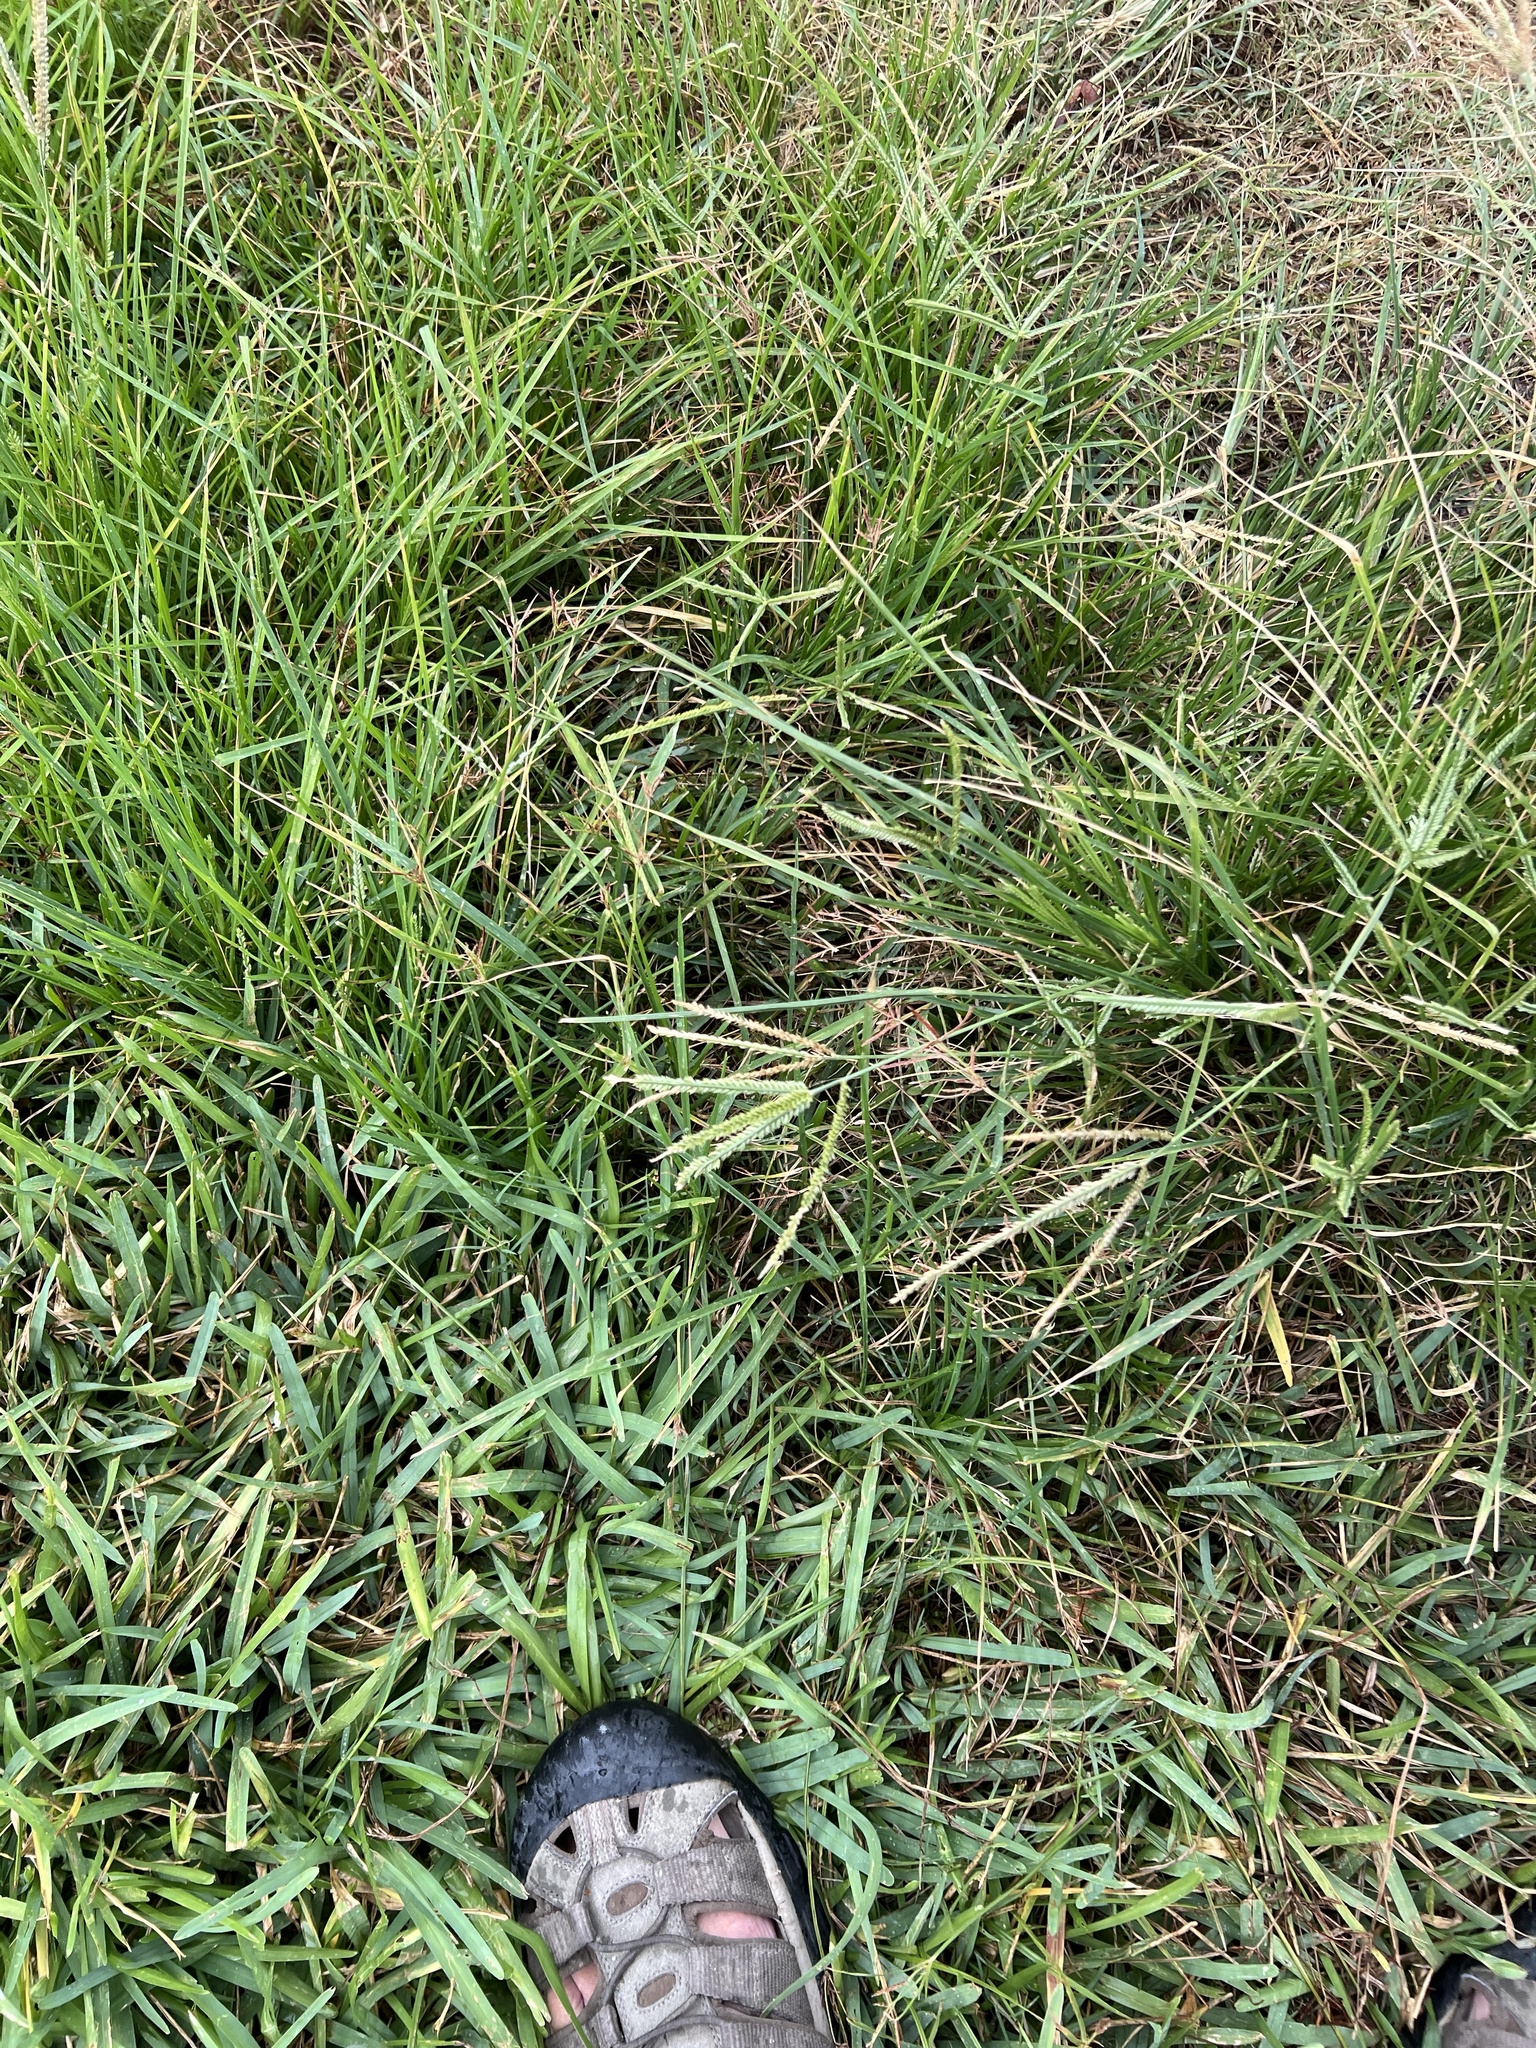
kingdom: Plantae
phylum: Tracheophyta
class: Liliopsida
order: Poales
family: Poaceae
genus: Eleusine
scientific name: Eleusine indica
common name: Yard-grass
